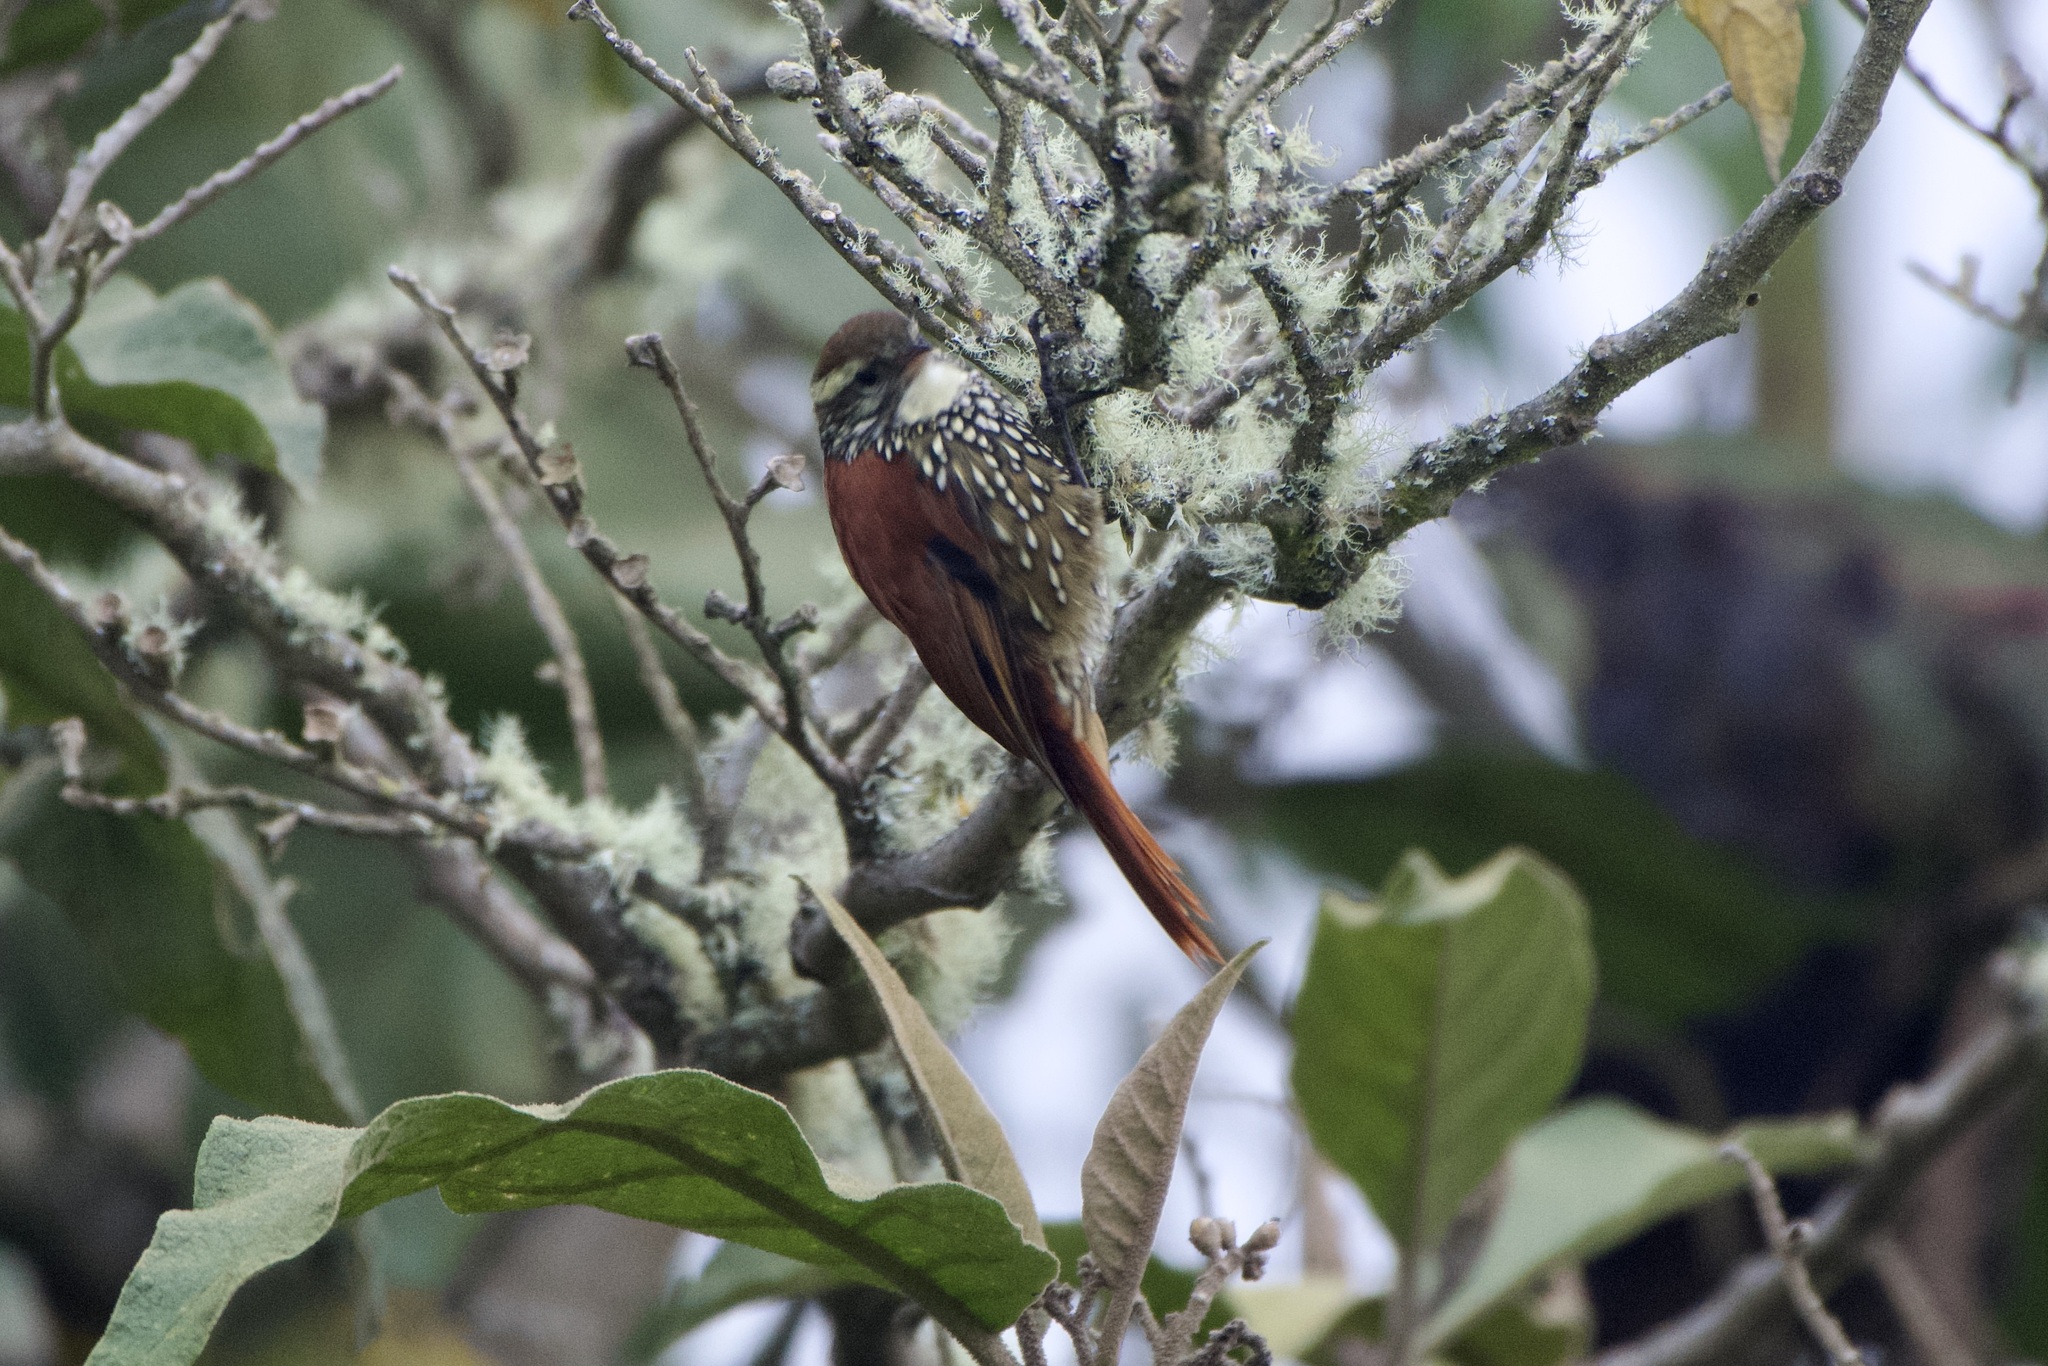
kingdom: Animalia
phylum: Chordata
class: Aves
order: Passeriformes
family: Furnariidae
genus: Margarornis
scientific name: Margarornis squamiger
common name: Pearled treerunner
